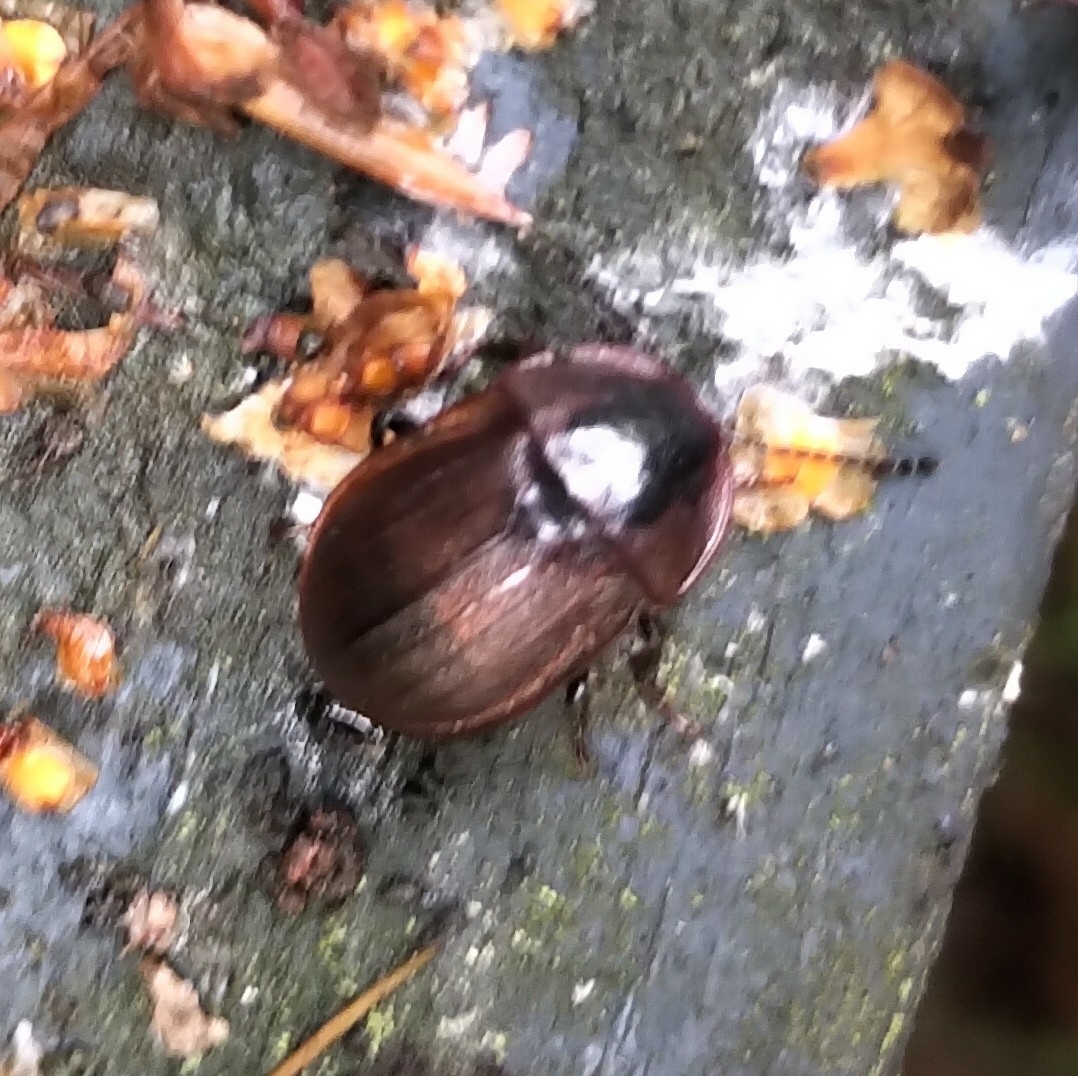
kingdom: Animalia
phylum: Arthropoda
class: Insecta
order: Coleoptera
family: Staphylinidae
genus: Silpha
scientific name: Silpha atrata
